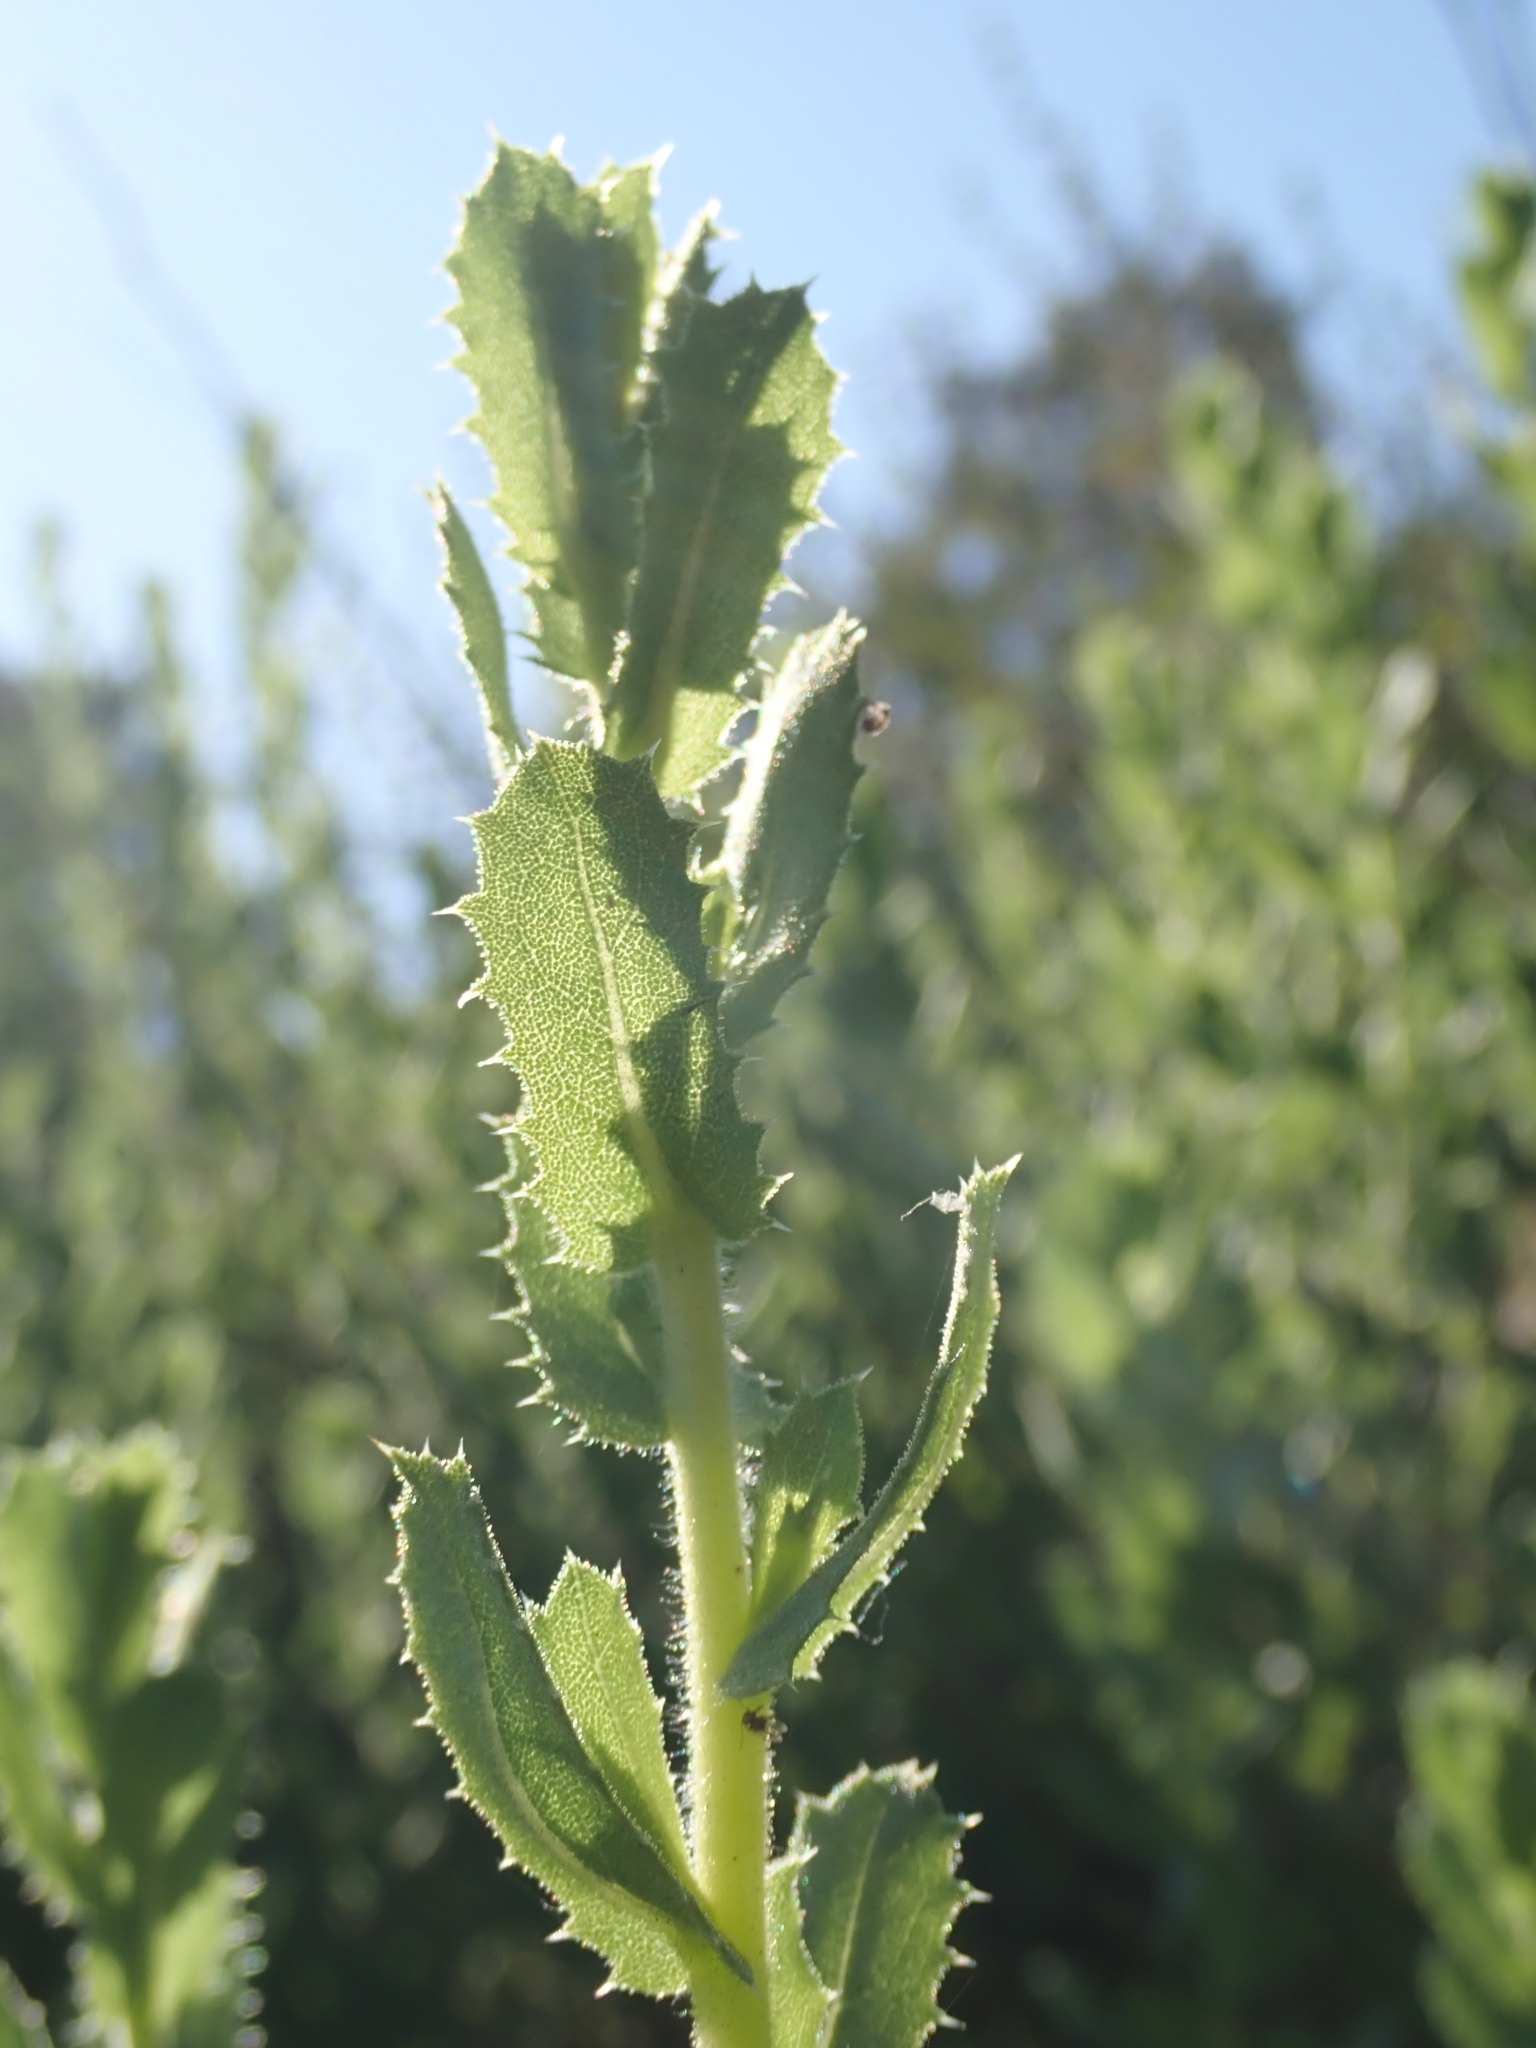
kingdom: Plantae
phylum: Tracheophyta
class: Magnoliopsida
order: Asterales
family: Asteraceae
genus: Hazardia
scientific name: Hazardia squarrosa
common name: Saw-tooth goldenbush
